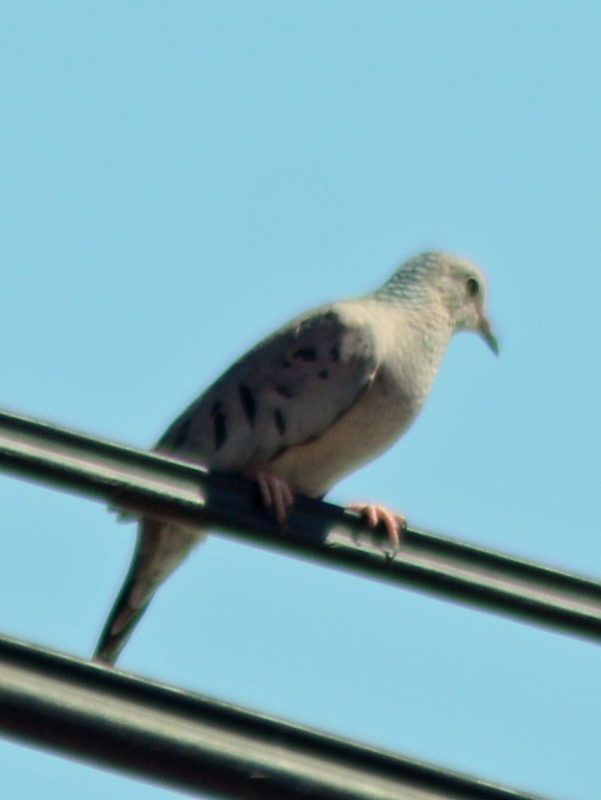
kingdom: Animalia
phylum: Chordata
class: Aves
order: Columbiformes
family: Columbidae
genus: Columbina
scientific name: Columbina passerina
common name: Common ground-dove
